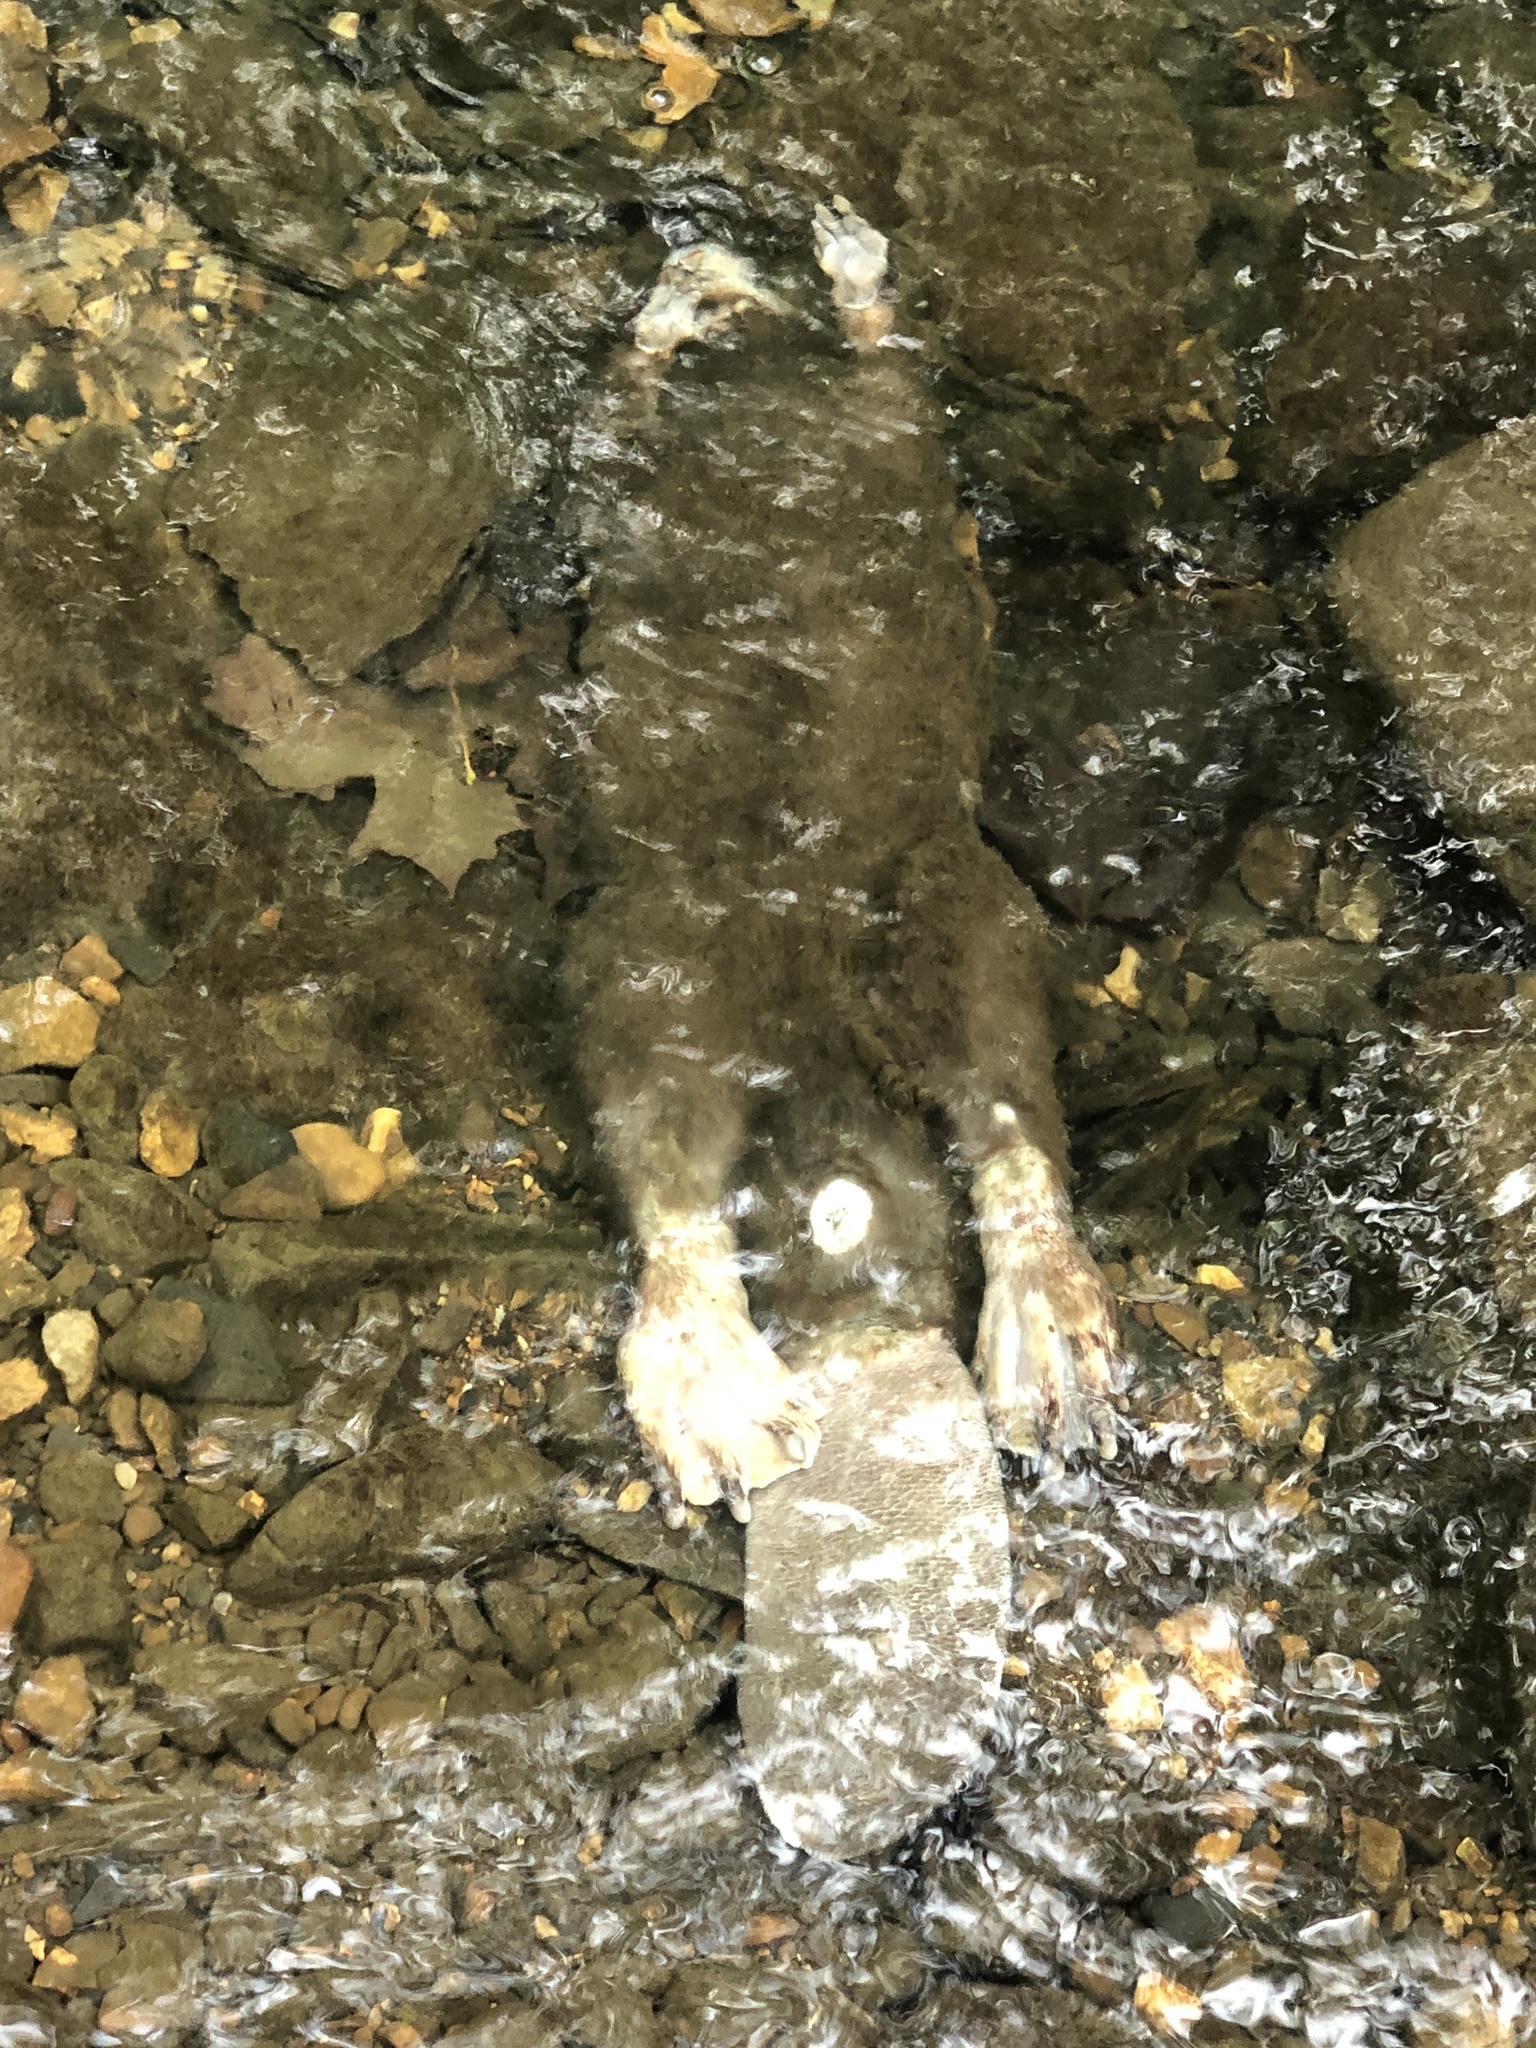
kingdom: Animalia
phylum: Chordata
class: Mammalia
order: Rodentia
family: Castoridae
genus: Castor
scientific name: Castor canadensis
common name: American beaver
